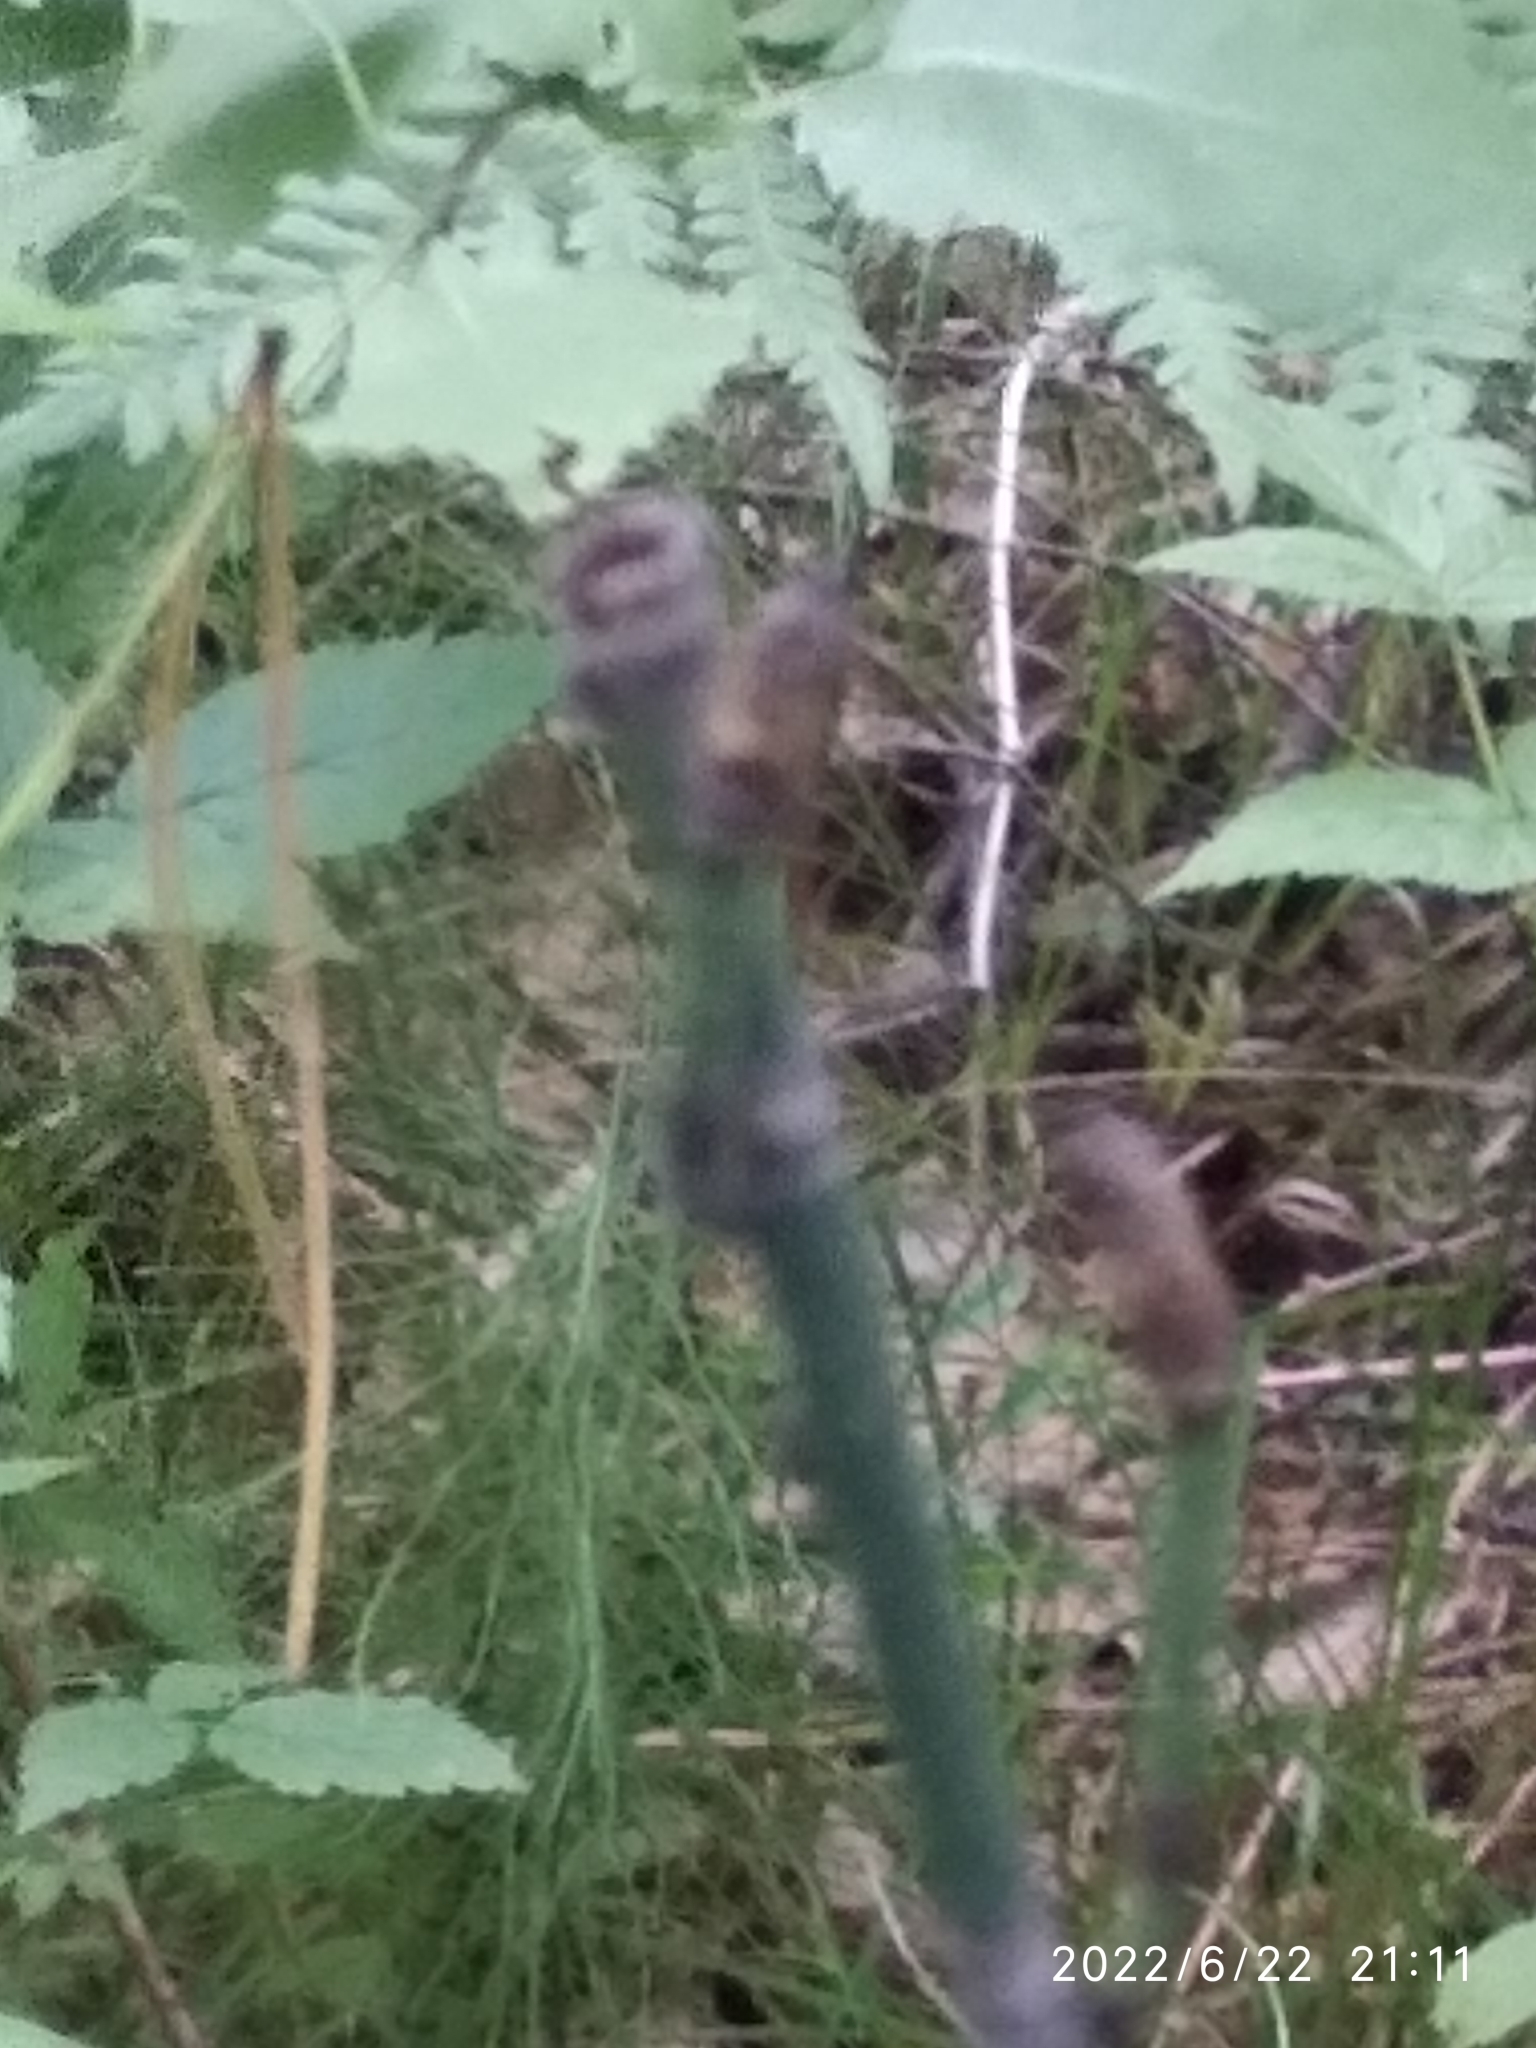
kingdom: Plantae
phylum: Tracheophyta
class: Polypodiopsida
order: Equisetales
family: Equisetaceae
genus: Equisetum
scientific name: Equisetum hyemale
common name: Rough horsetail
